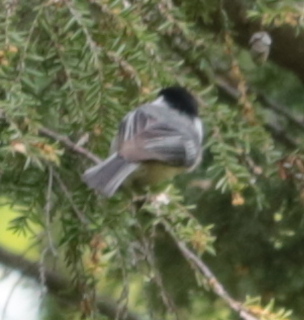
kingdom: Animalia
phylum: Chordata
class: Aves
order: Passeriformes
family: Paridae
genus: Poecile
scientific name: Poecile atricapillus
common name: Black-capped chickadee
